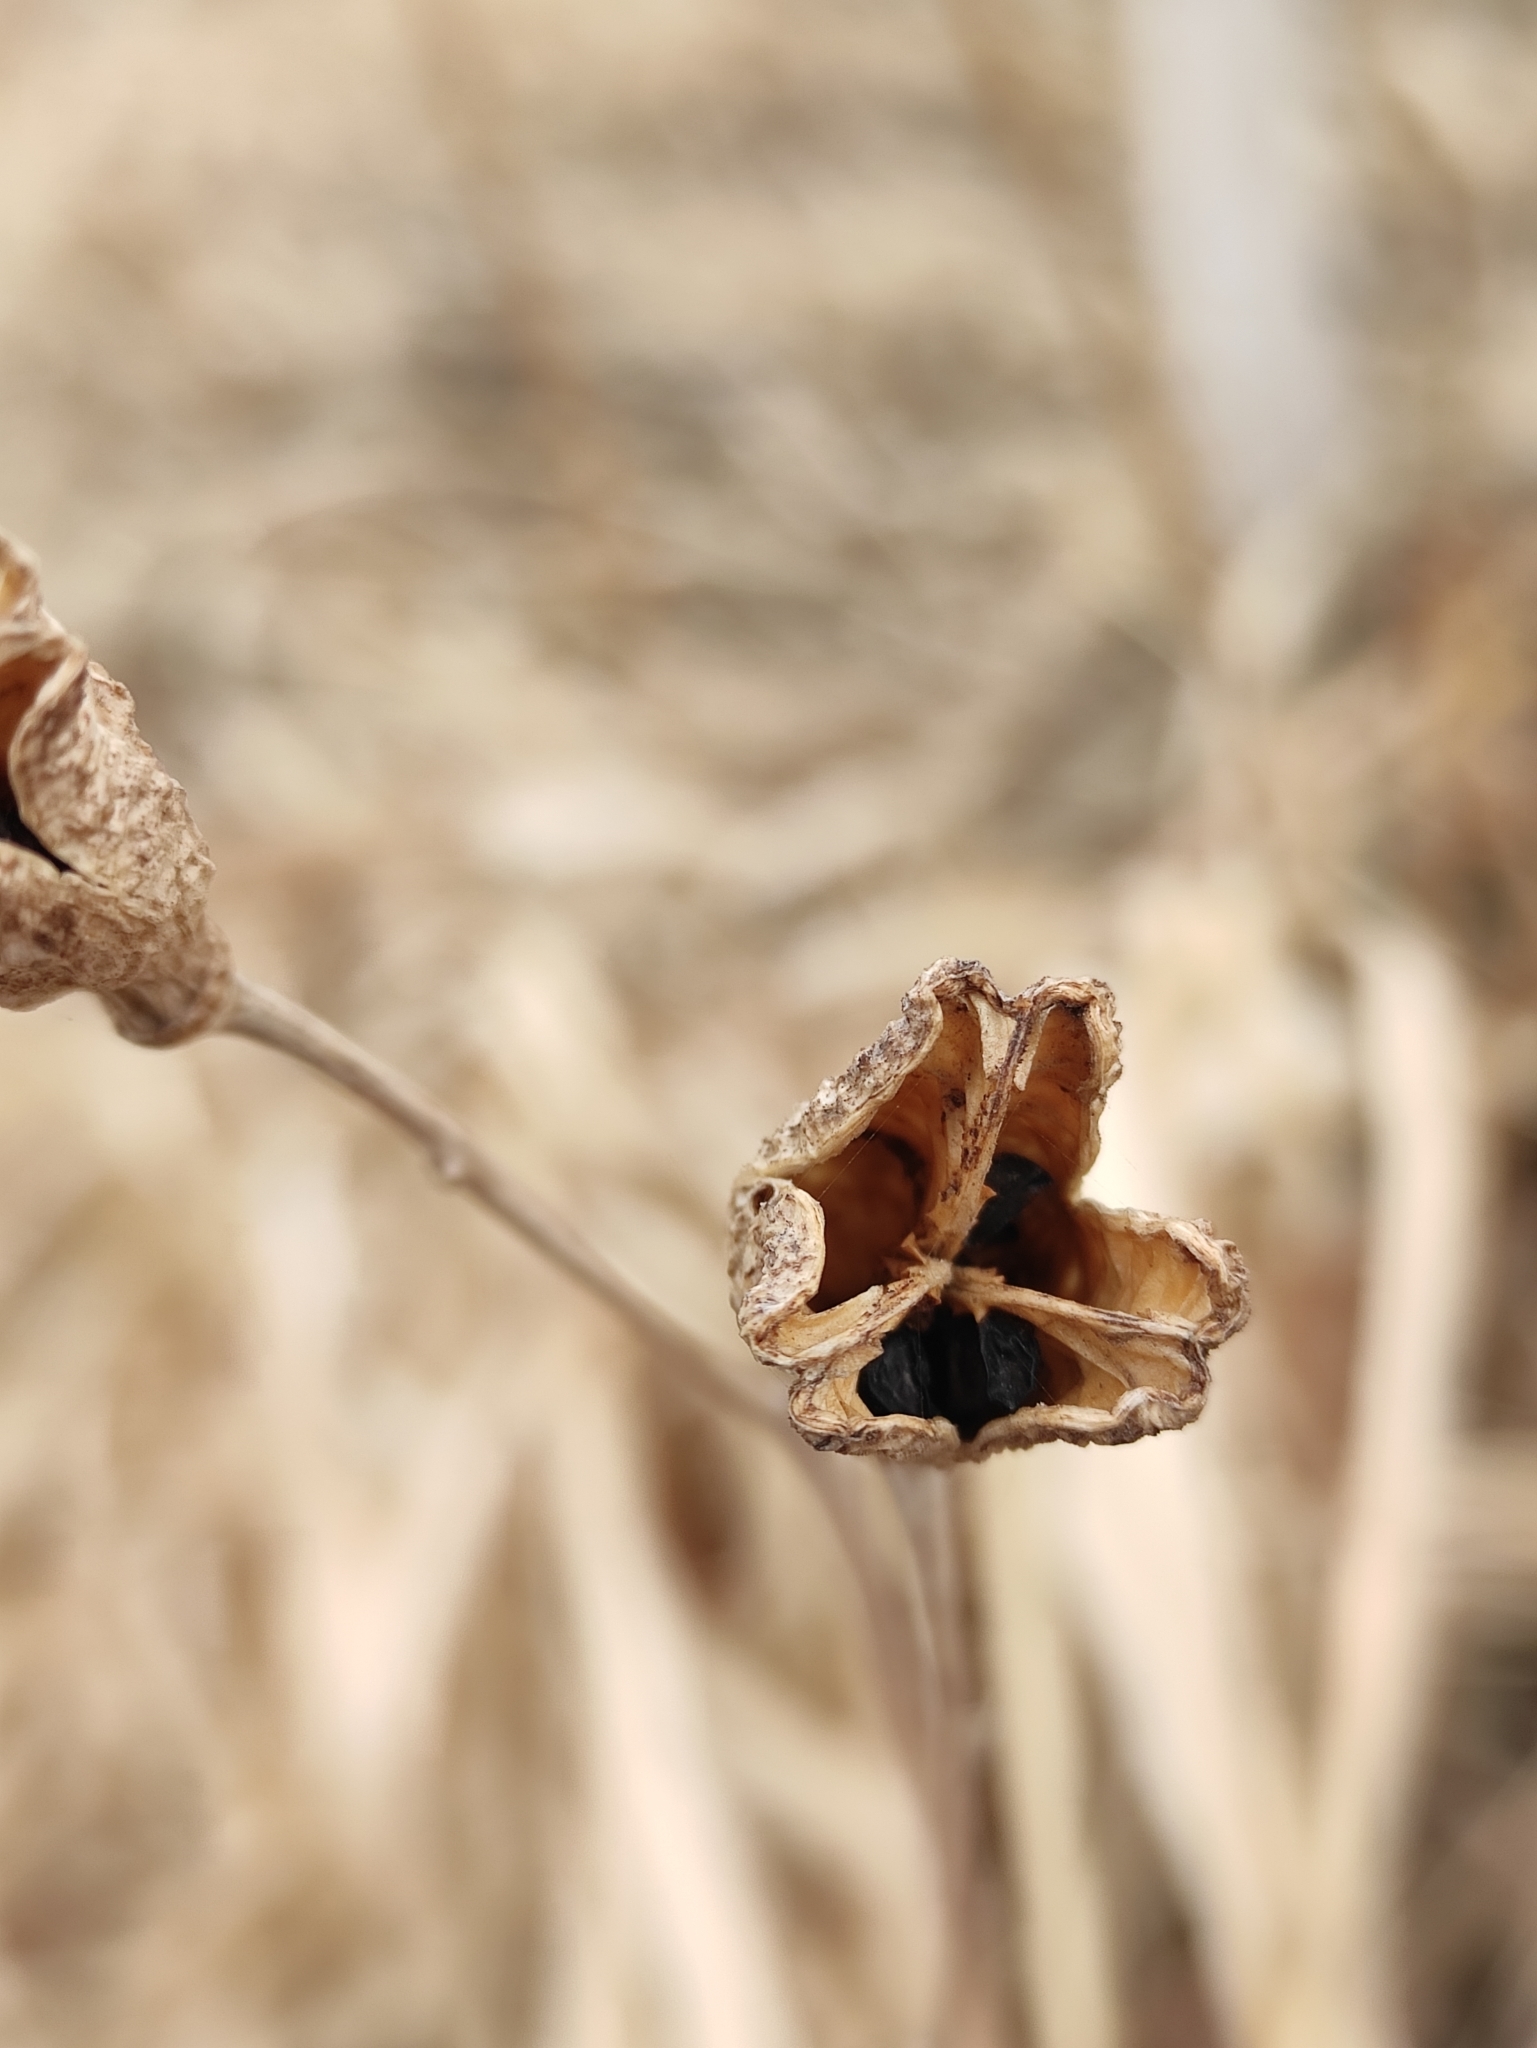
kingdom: Plantae
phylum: Tracheophyta
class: Liliopsida
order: Asparagales
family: Asphodelaceae
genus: Hemerocallis
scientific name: Hemerocallis minor
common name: Small daylily
